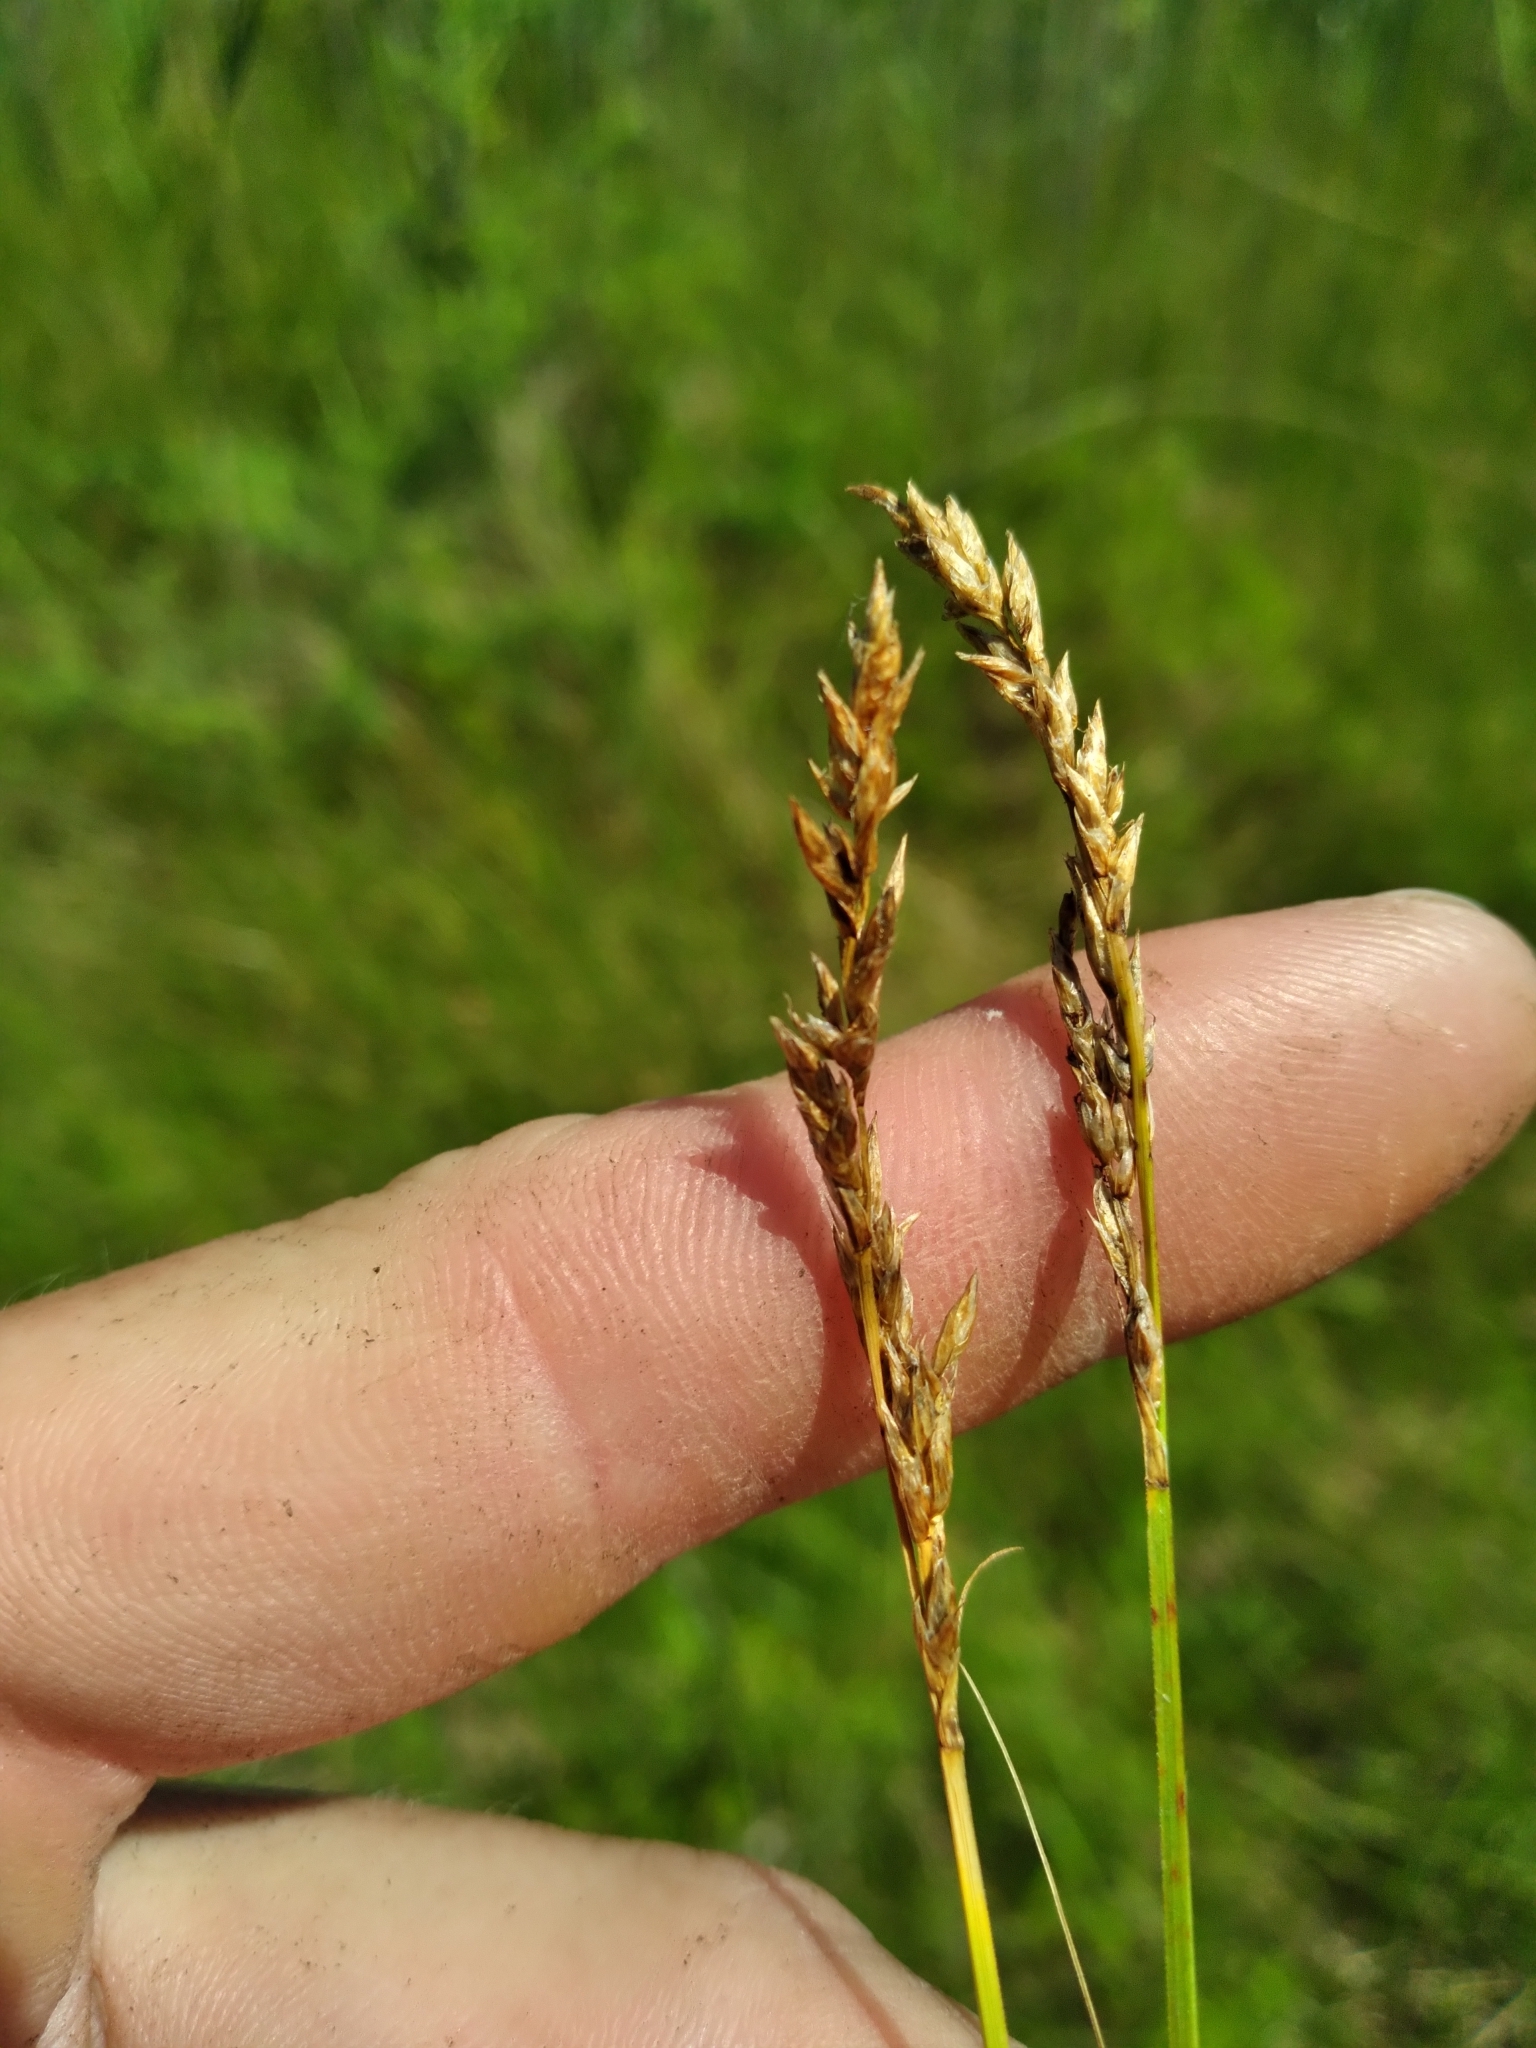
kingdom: Plantae
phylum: Tracheophyta
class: Liliopsida
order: Poales
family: Cyperaceae
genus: Carex
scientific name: Carex prairea
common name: Prairie sedge
